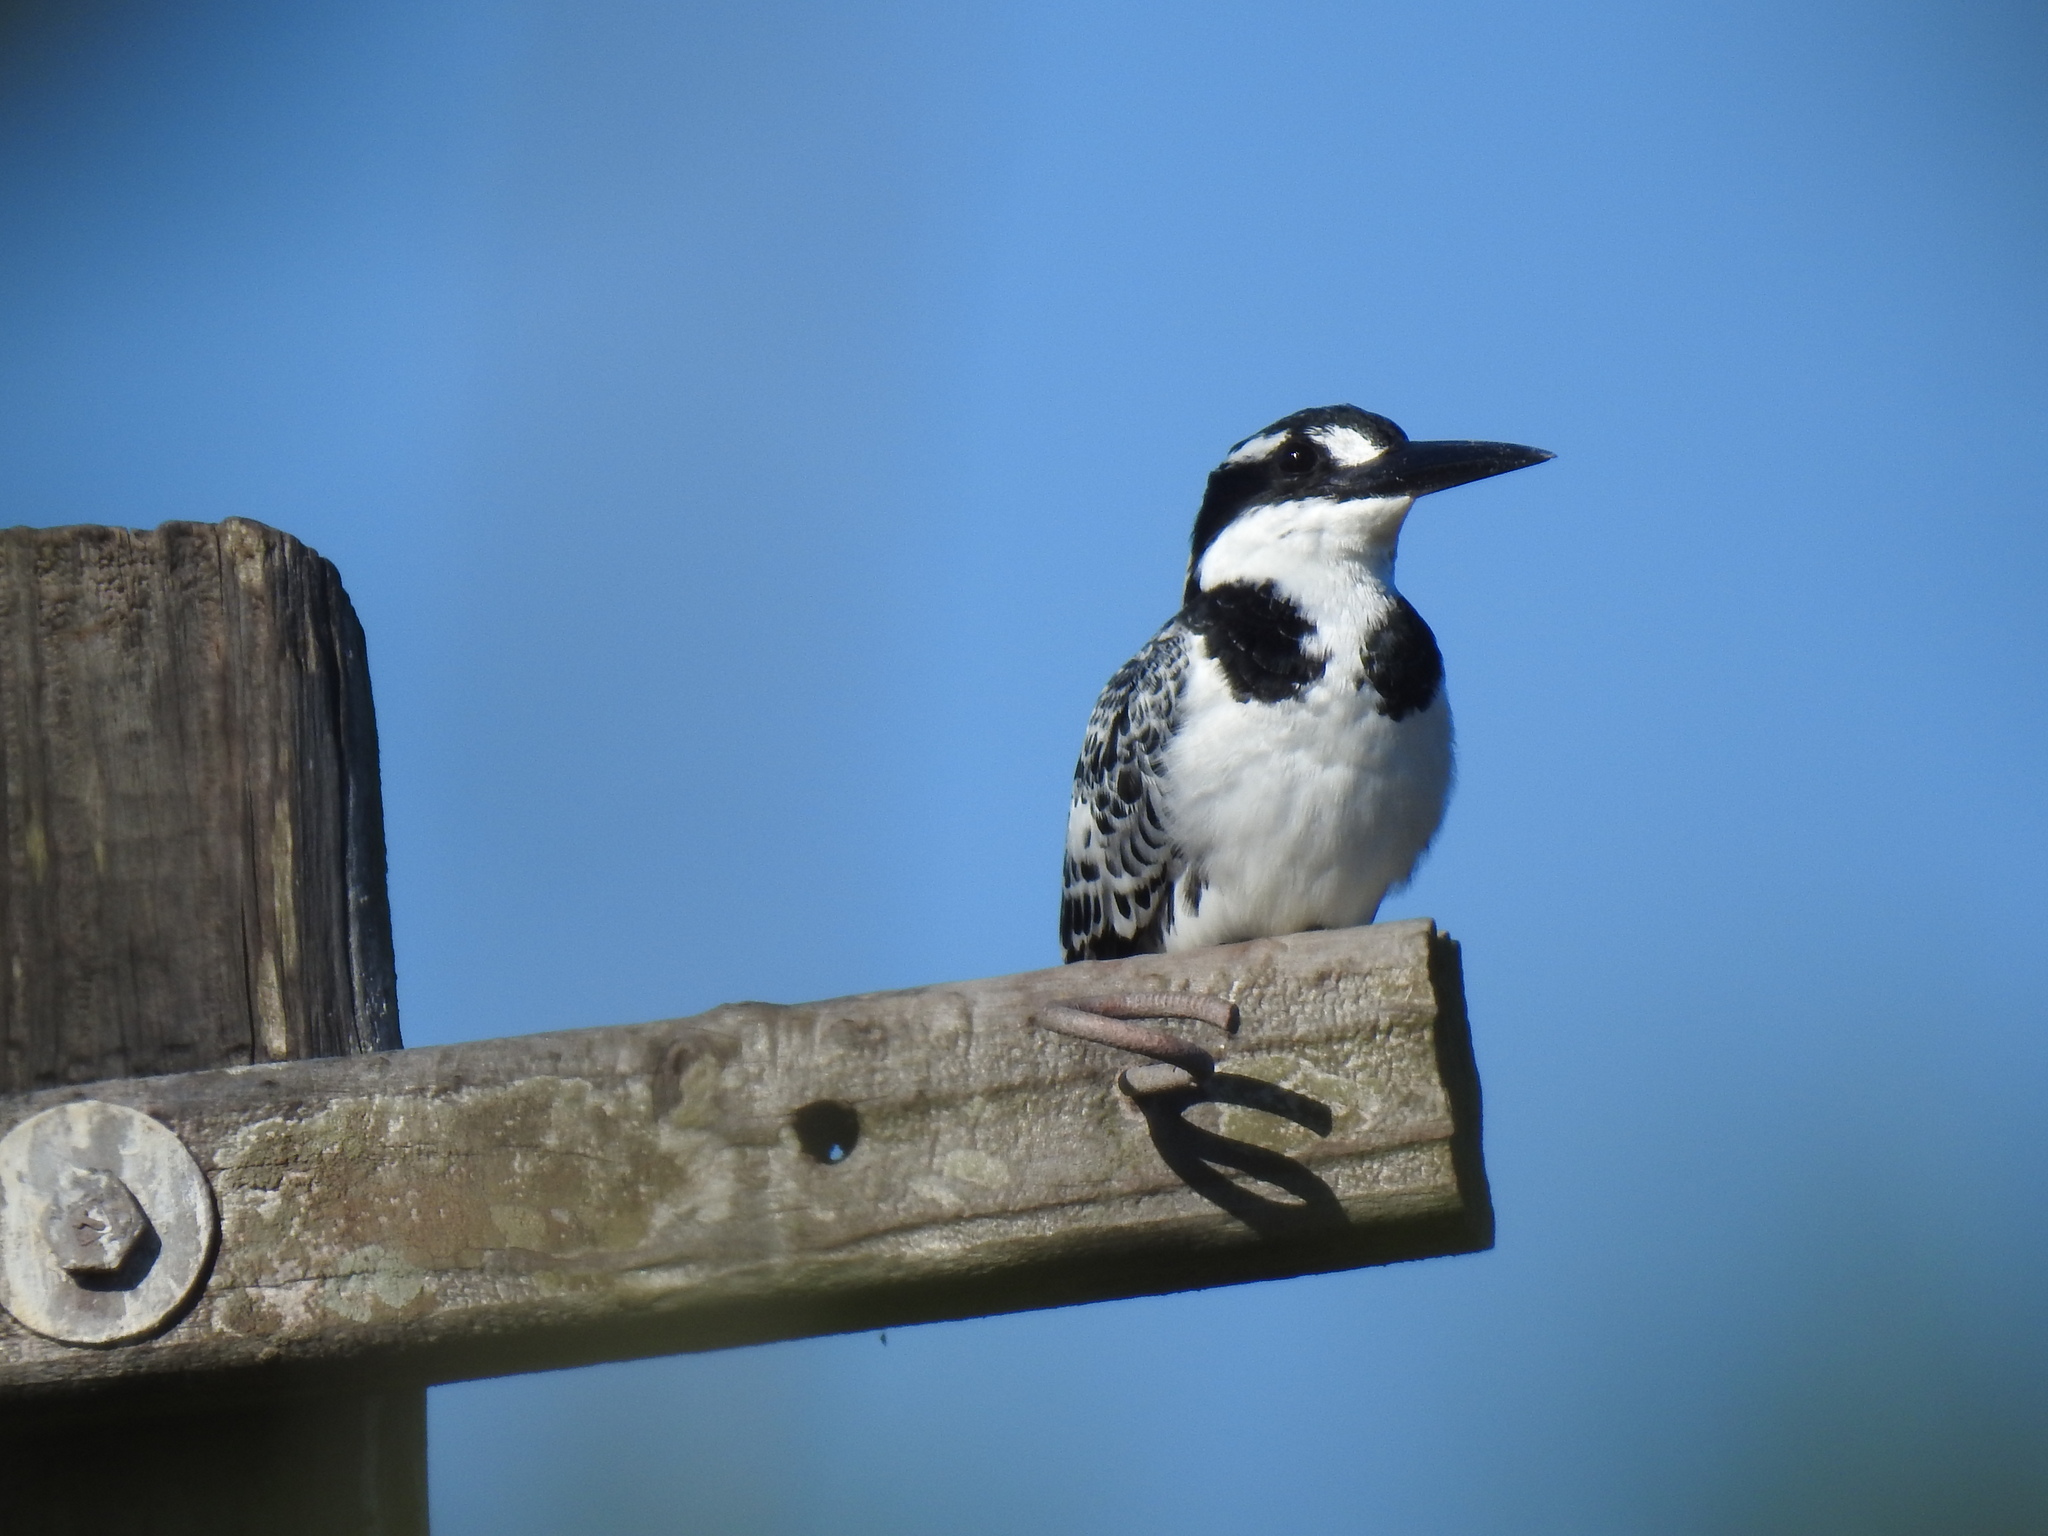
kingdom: Animalia
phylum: Chordata
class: Aves
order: Coraciiformes
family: Alcedinidae
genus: Ceryle
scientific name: Ceryle rudis
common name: Pied kingfisher
